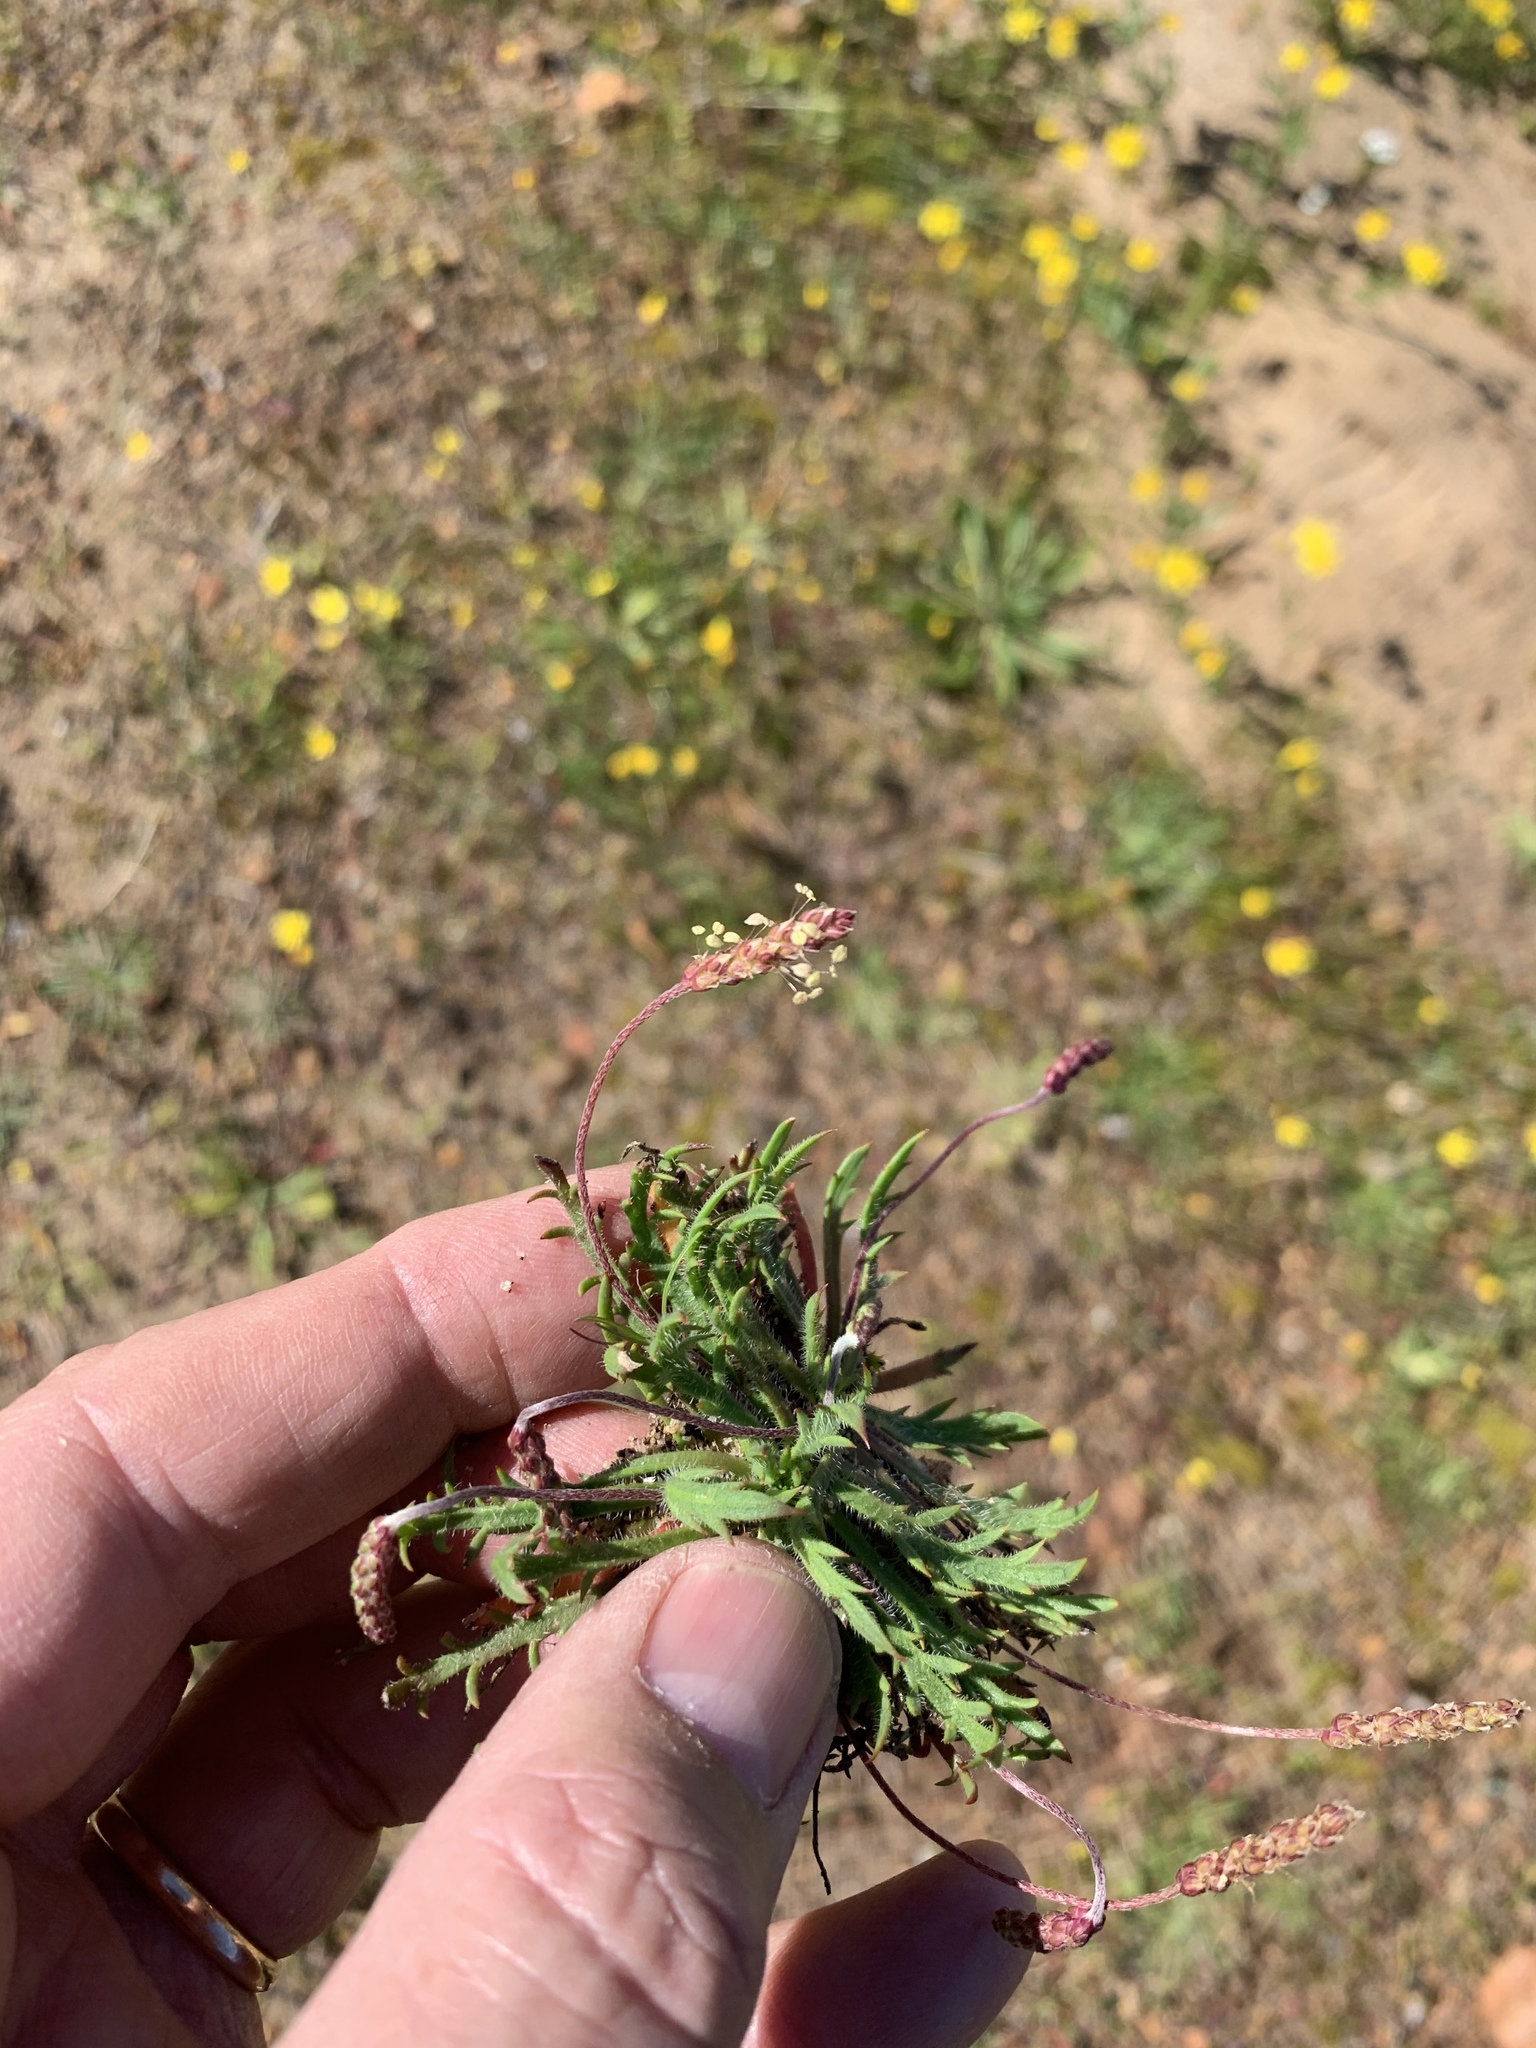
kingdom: Plantae
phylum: Tracheophyta
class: Magnoliopsida
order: Lamiales
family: Plantaginaceae
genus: Plantago
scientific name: Plantago coronopus
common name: Buck's-horn plantain
